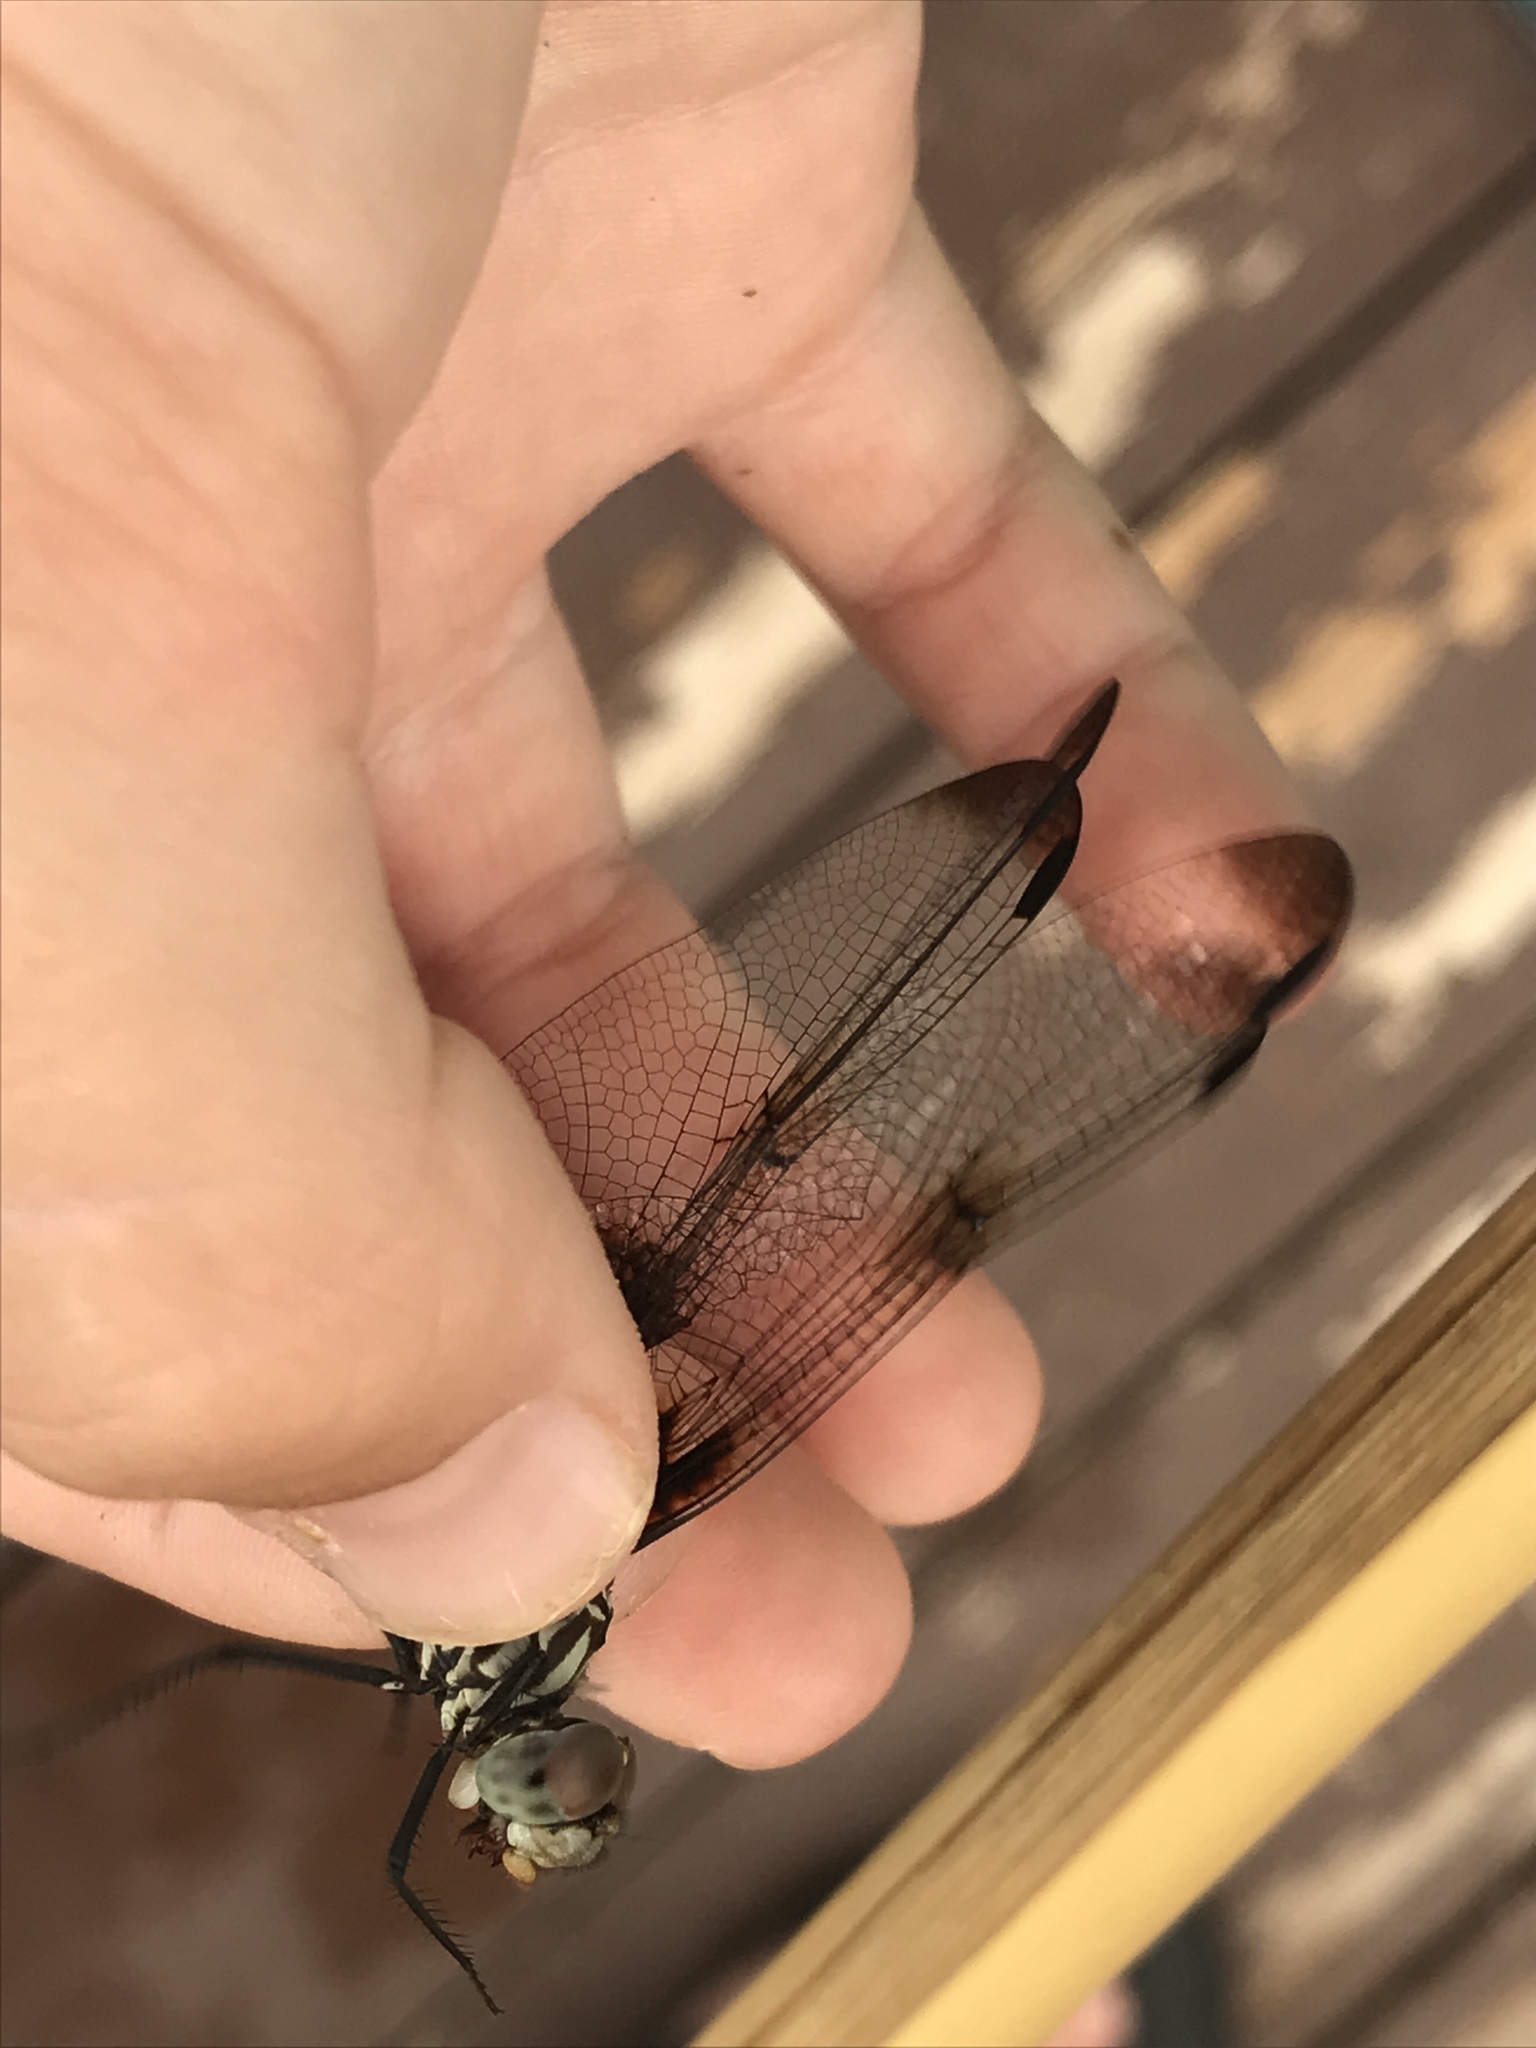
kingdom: Animalia
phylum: Arthropoda
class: Insecta
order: Odonata
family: Libellulidae
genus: Dythemis
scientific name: Dythemis fugax
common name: Checkered setwing
